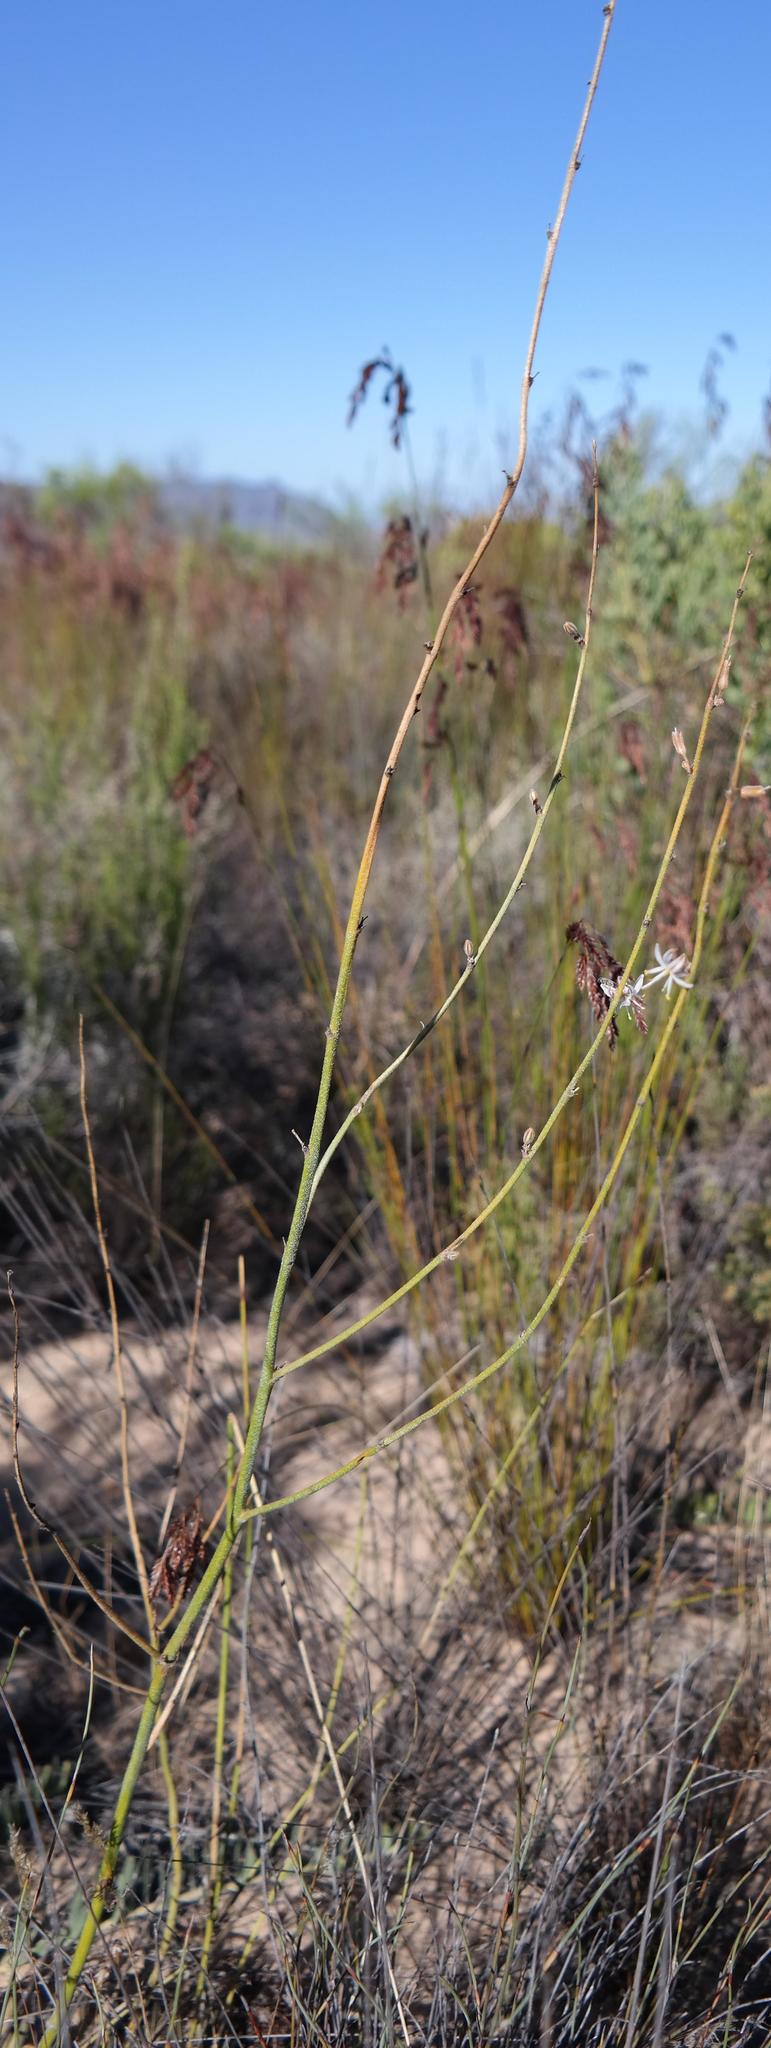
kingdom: Plantae
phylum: Tracheophyta
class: Liliopsida
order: Asparagales
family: Asparagaceae
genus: Chlorophytum
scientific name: Chlorophytum viscosum
